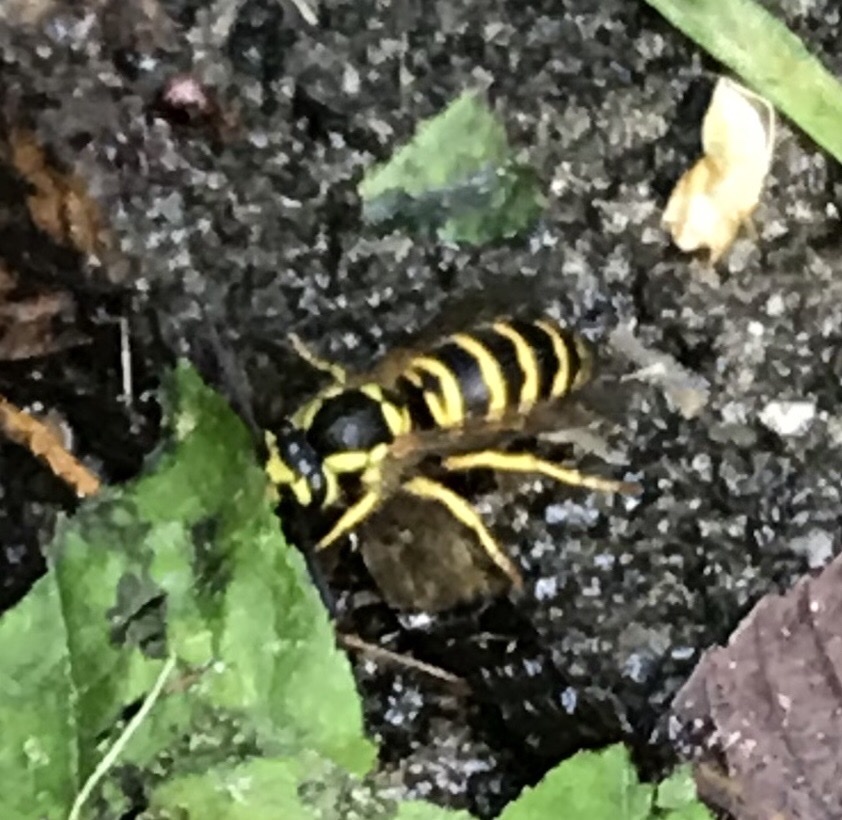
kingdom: Animalia
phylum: Arthropoda
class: Insecta
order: Hymenoptera
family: Vespidae
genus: Vespula
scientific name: Vespula maculifrons
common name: Eastern yellowjacket
